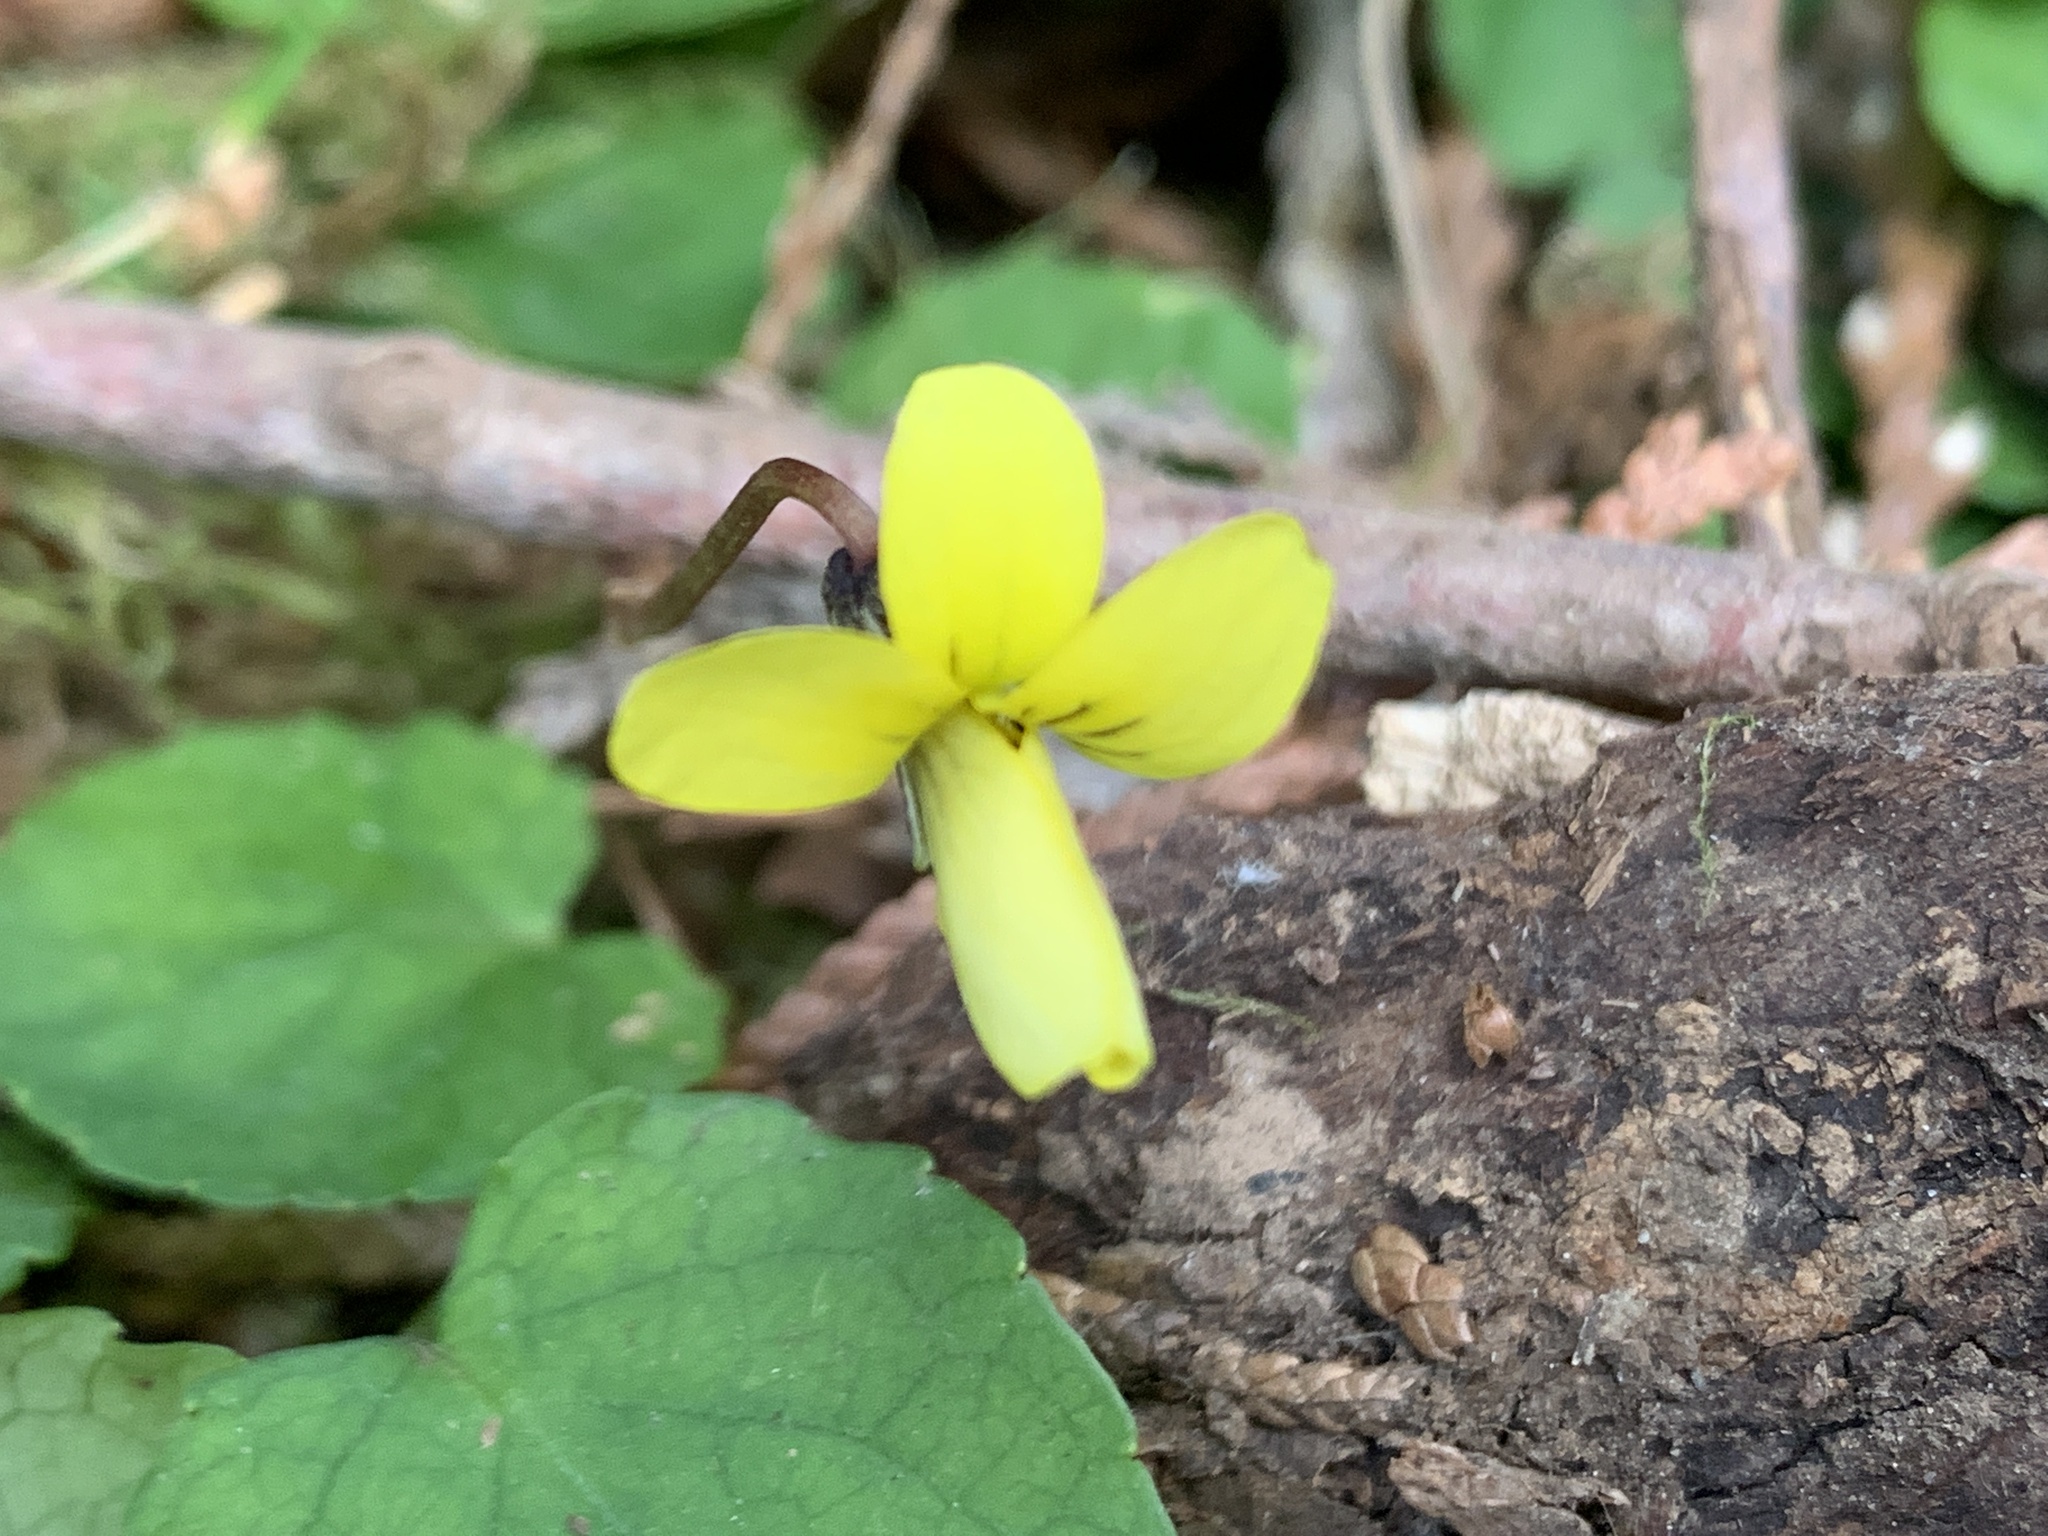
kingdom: Plantae
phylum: Tracheophyta
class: Magnoliopsida
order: Malpighiales
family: Violaceae
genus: Viola
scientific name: Viola sempervirens
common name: Evergreen violet
